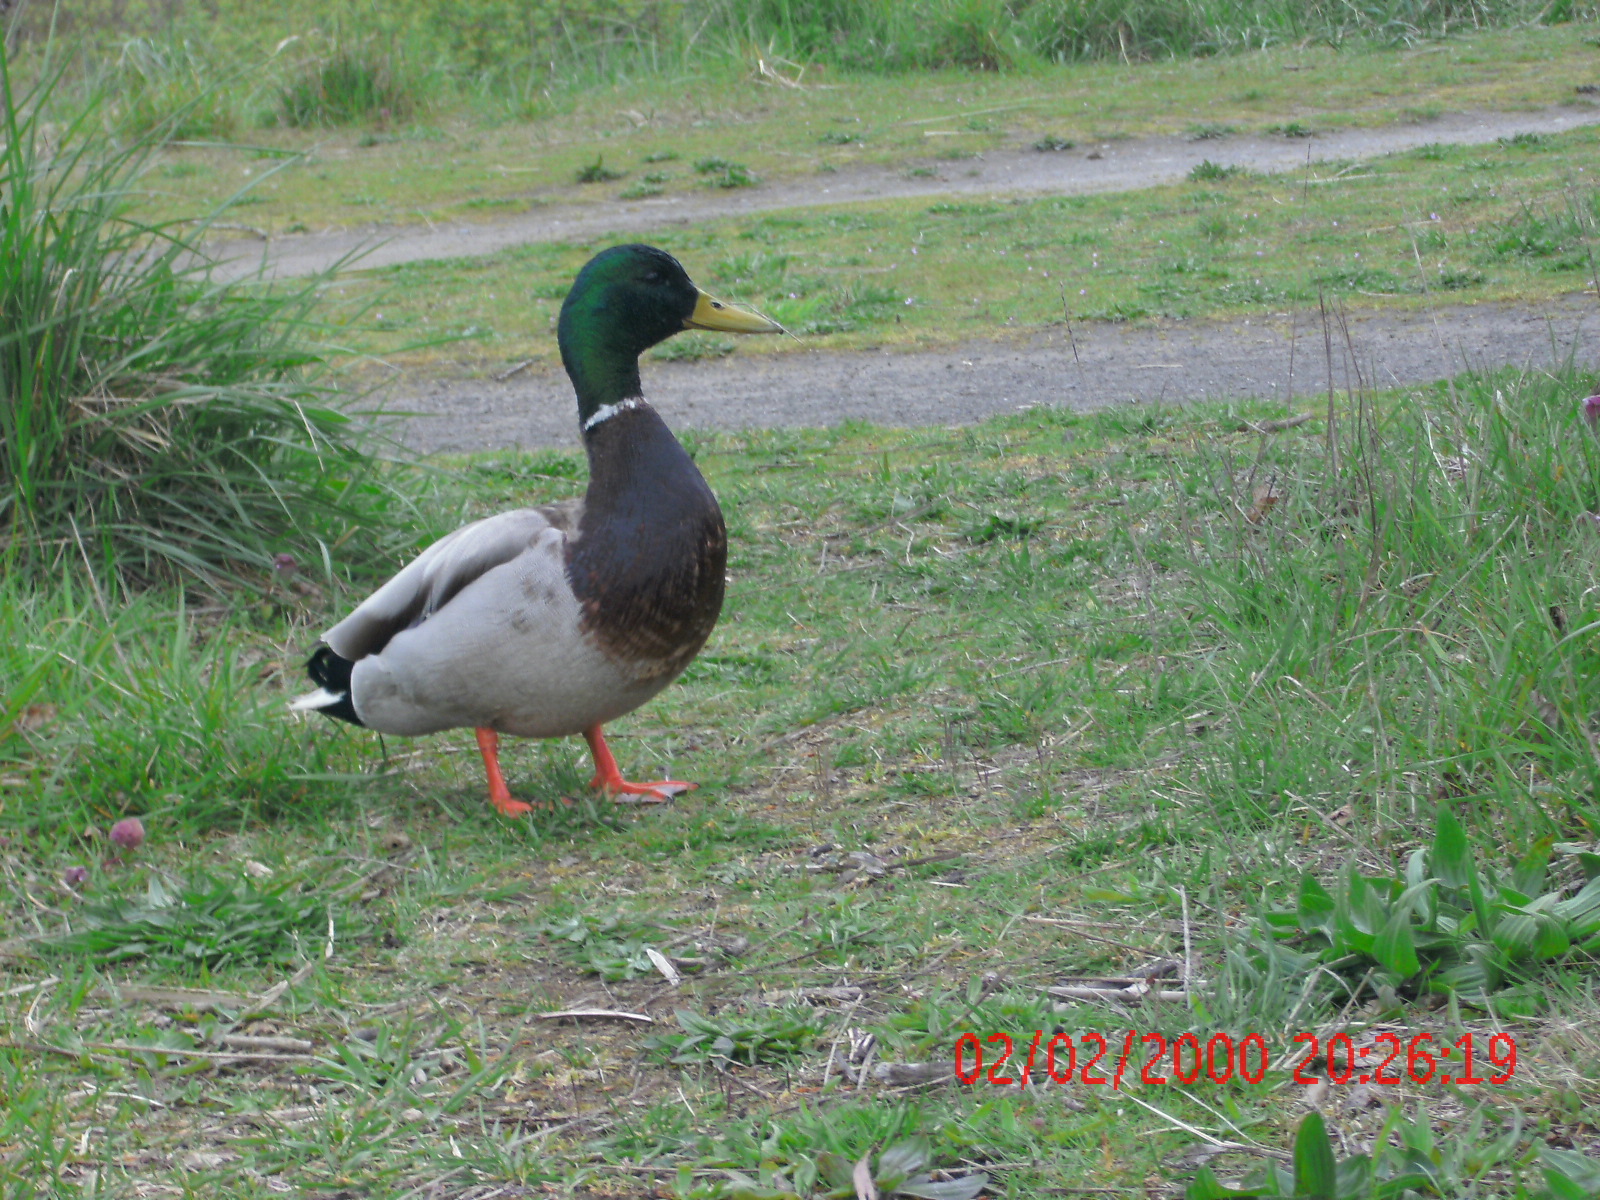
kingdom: Animalia
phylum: Chordata
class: Aves
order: Anseriformes
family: Anatidae
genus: Anas
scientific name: Anas platyrhynchos
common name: Mallard
